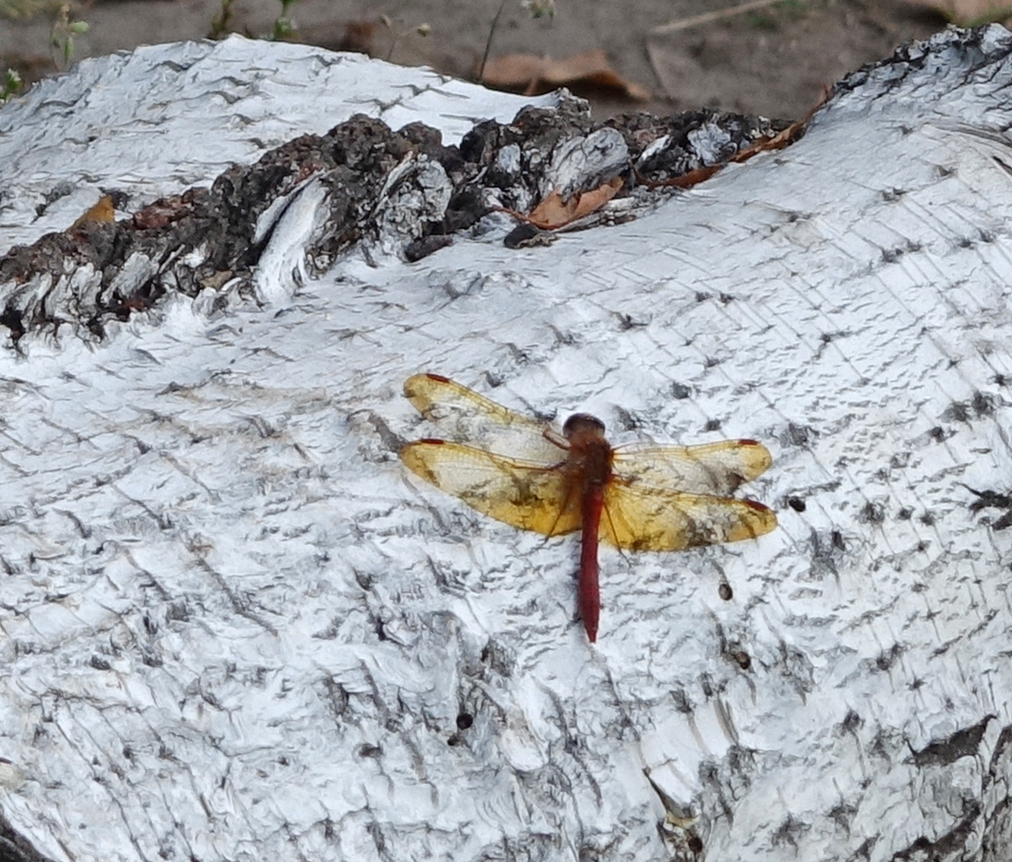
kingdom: Animalia
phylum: Arthropoda
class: Insecta
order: Odonata
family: Libellulidae
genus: Sympetrum
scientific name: Sympetrum croceolum
